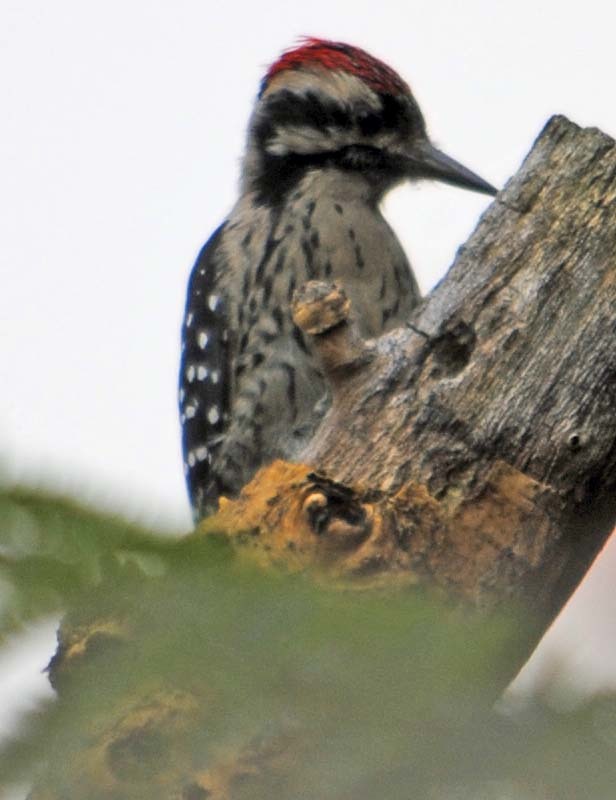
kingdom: Animalia
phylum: Chordata
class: Aves
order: Piciformes
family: Picidae
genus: Dryobates
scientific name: Dryobates scalaris
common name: Ladder-backed woodpecker
